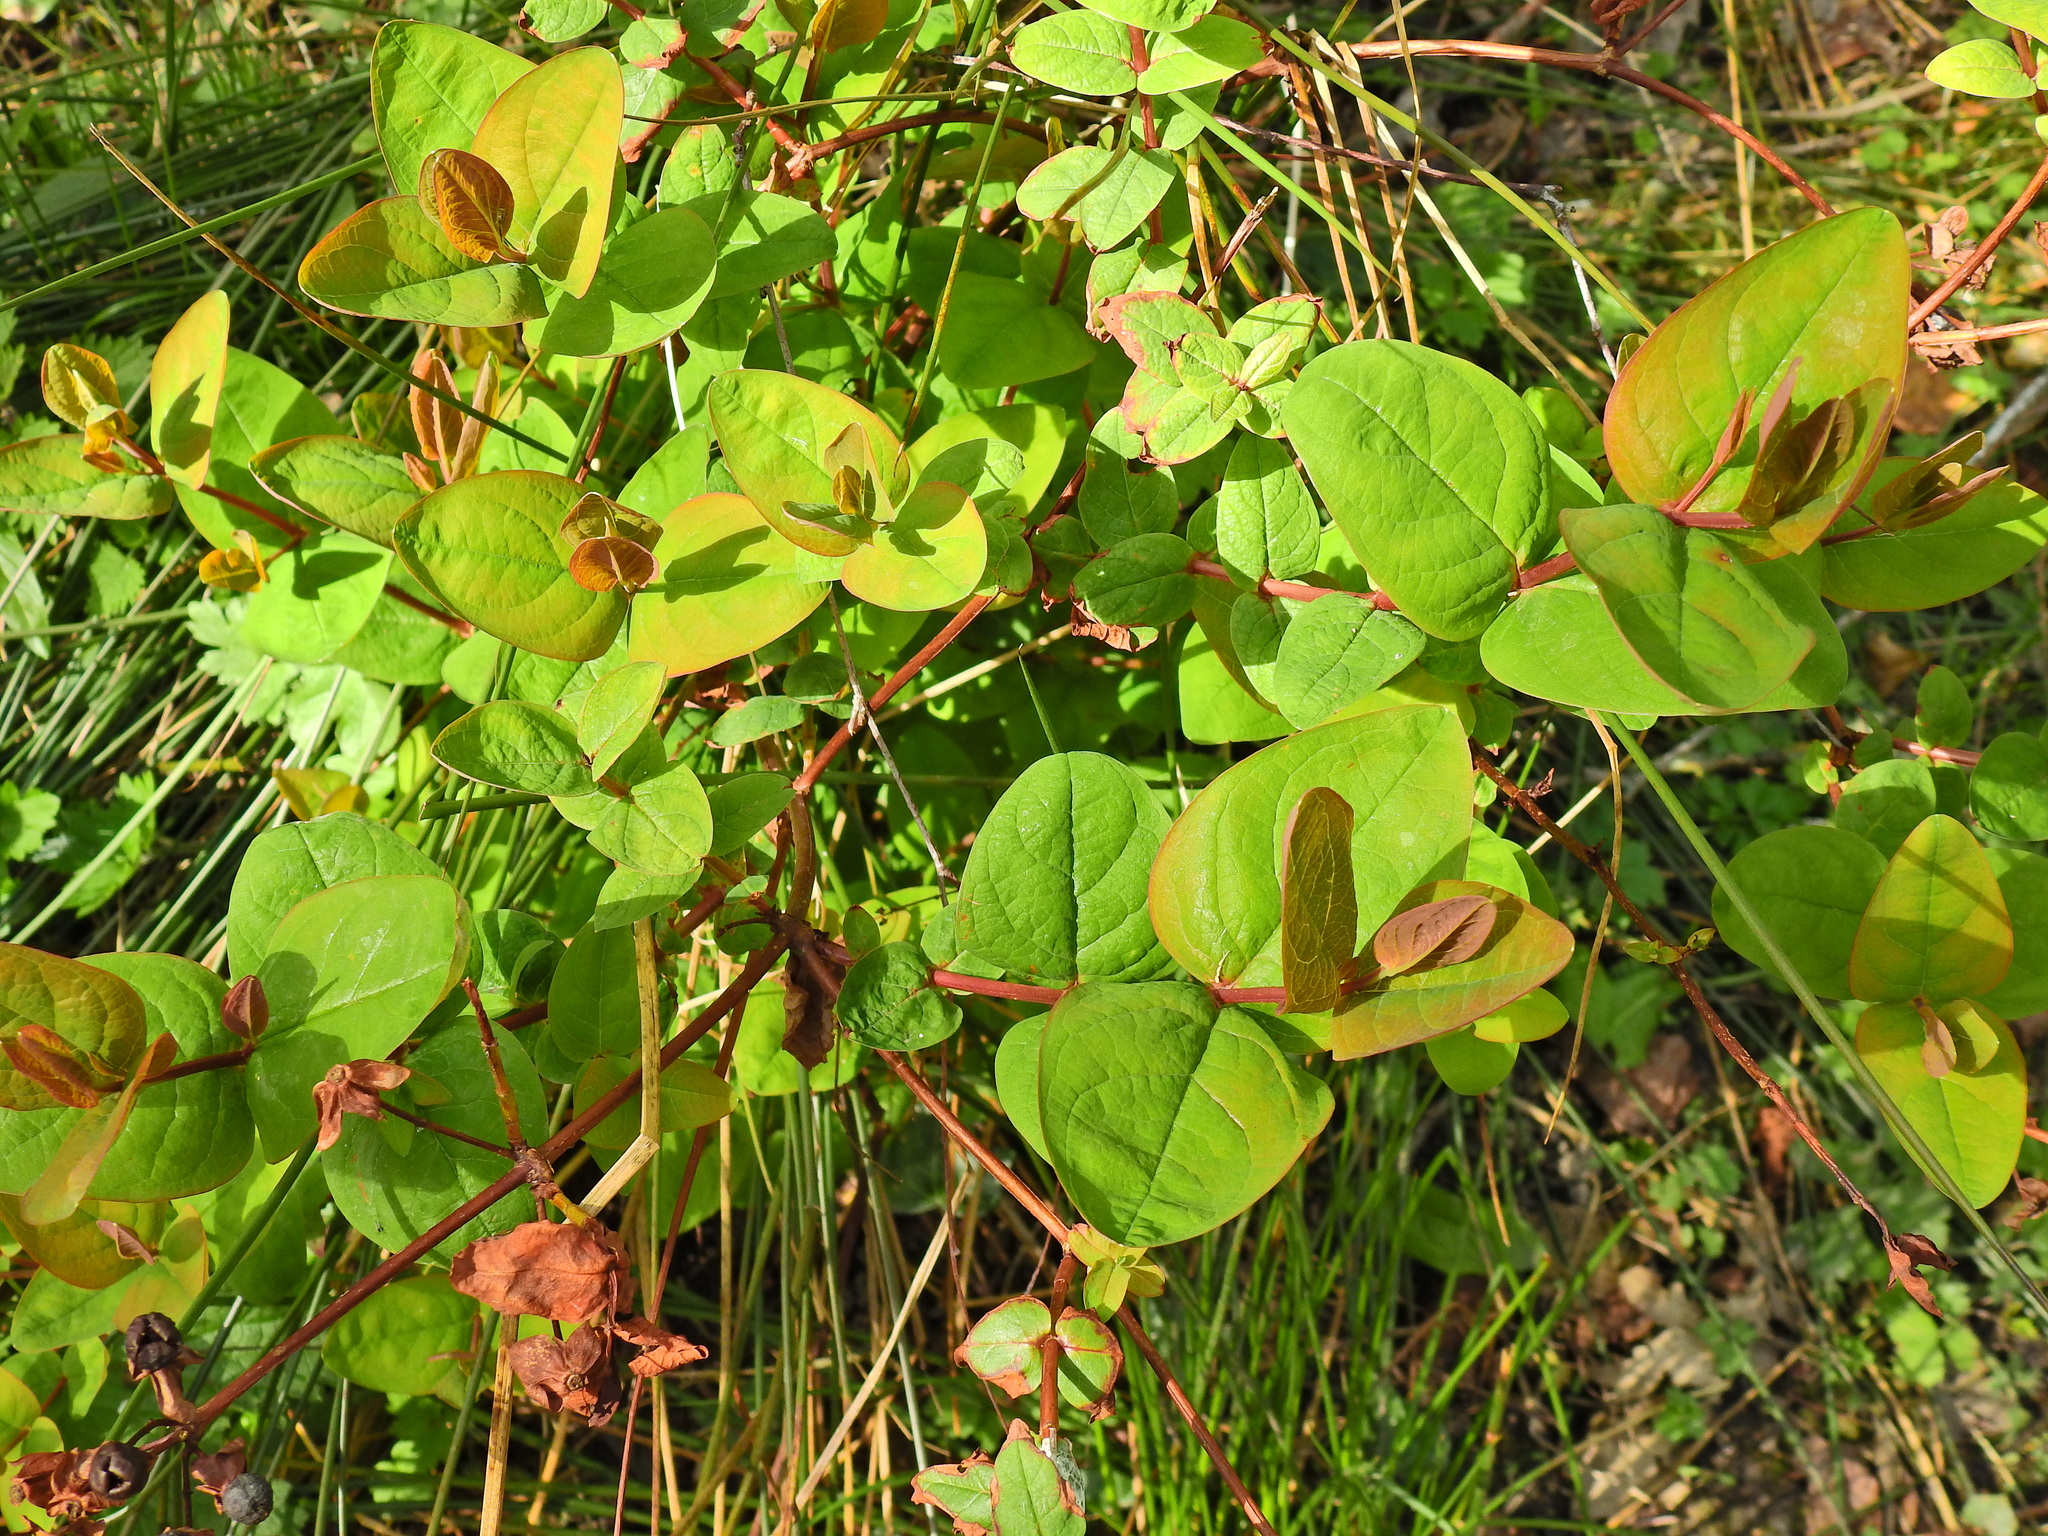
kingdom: Plantae
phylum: Tracheophyta
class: Magnoliopsida
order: Malpighiales
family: Hypericaceae
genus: Hypericum
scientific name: Hypericum androsaemum
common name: Sweet-amber
